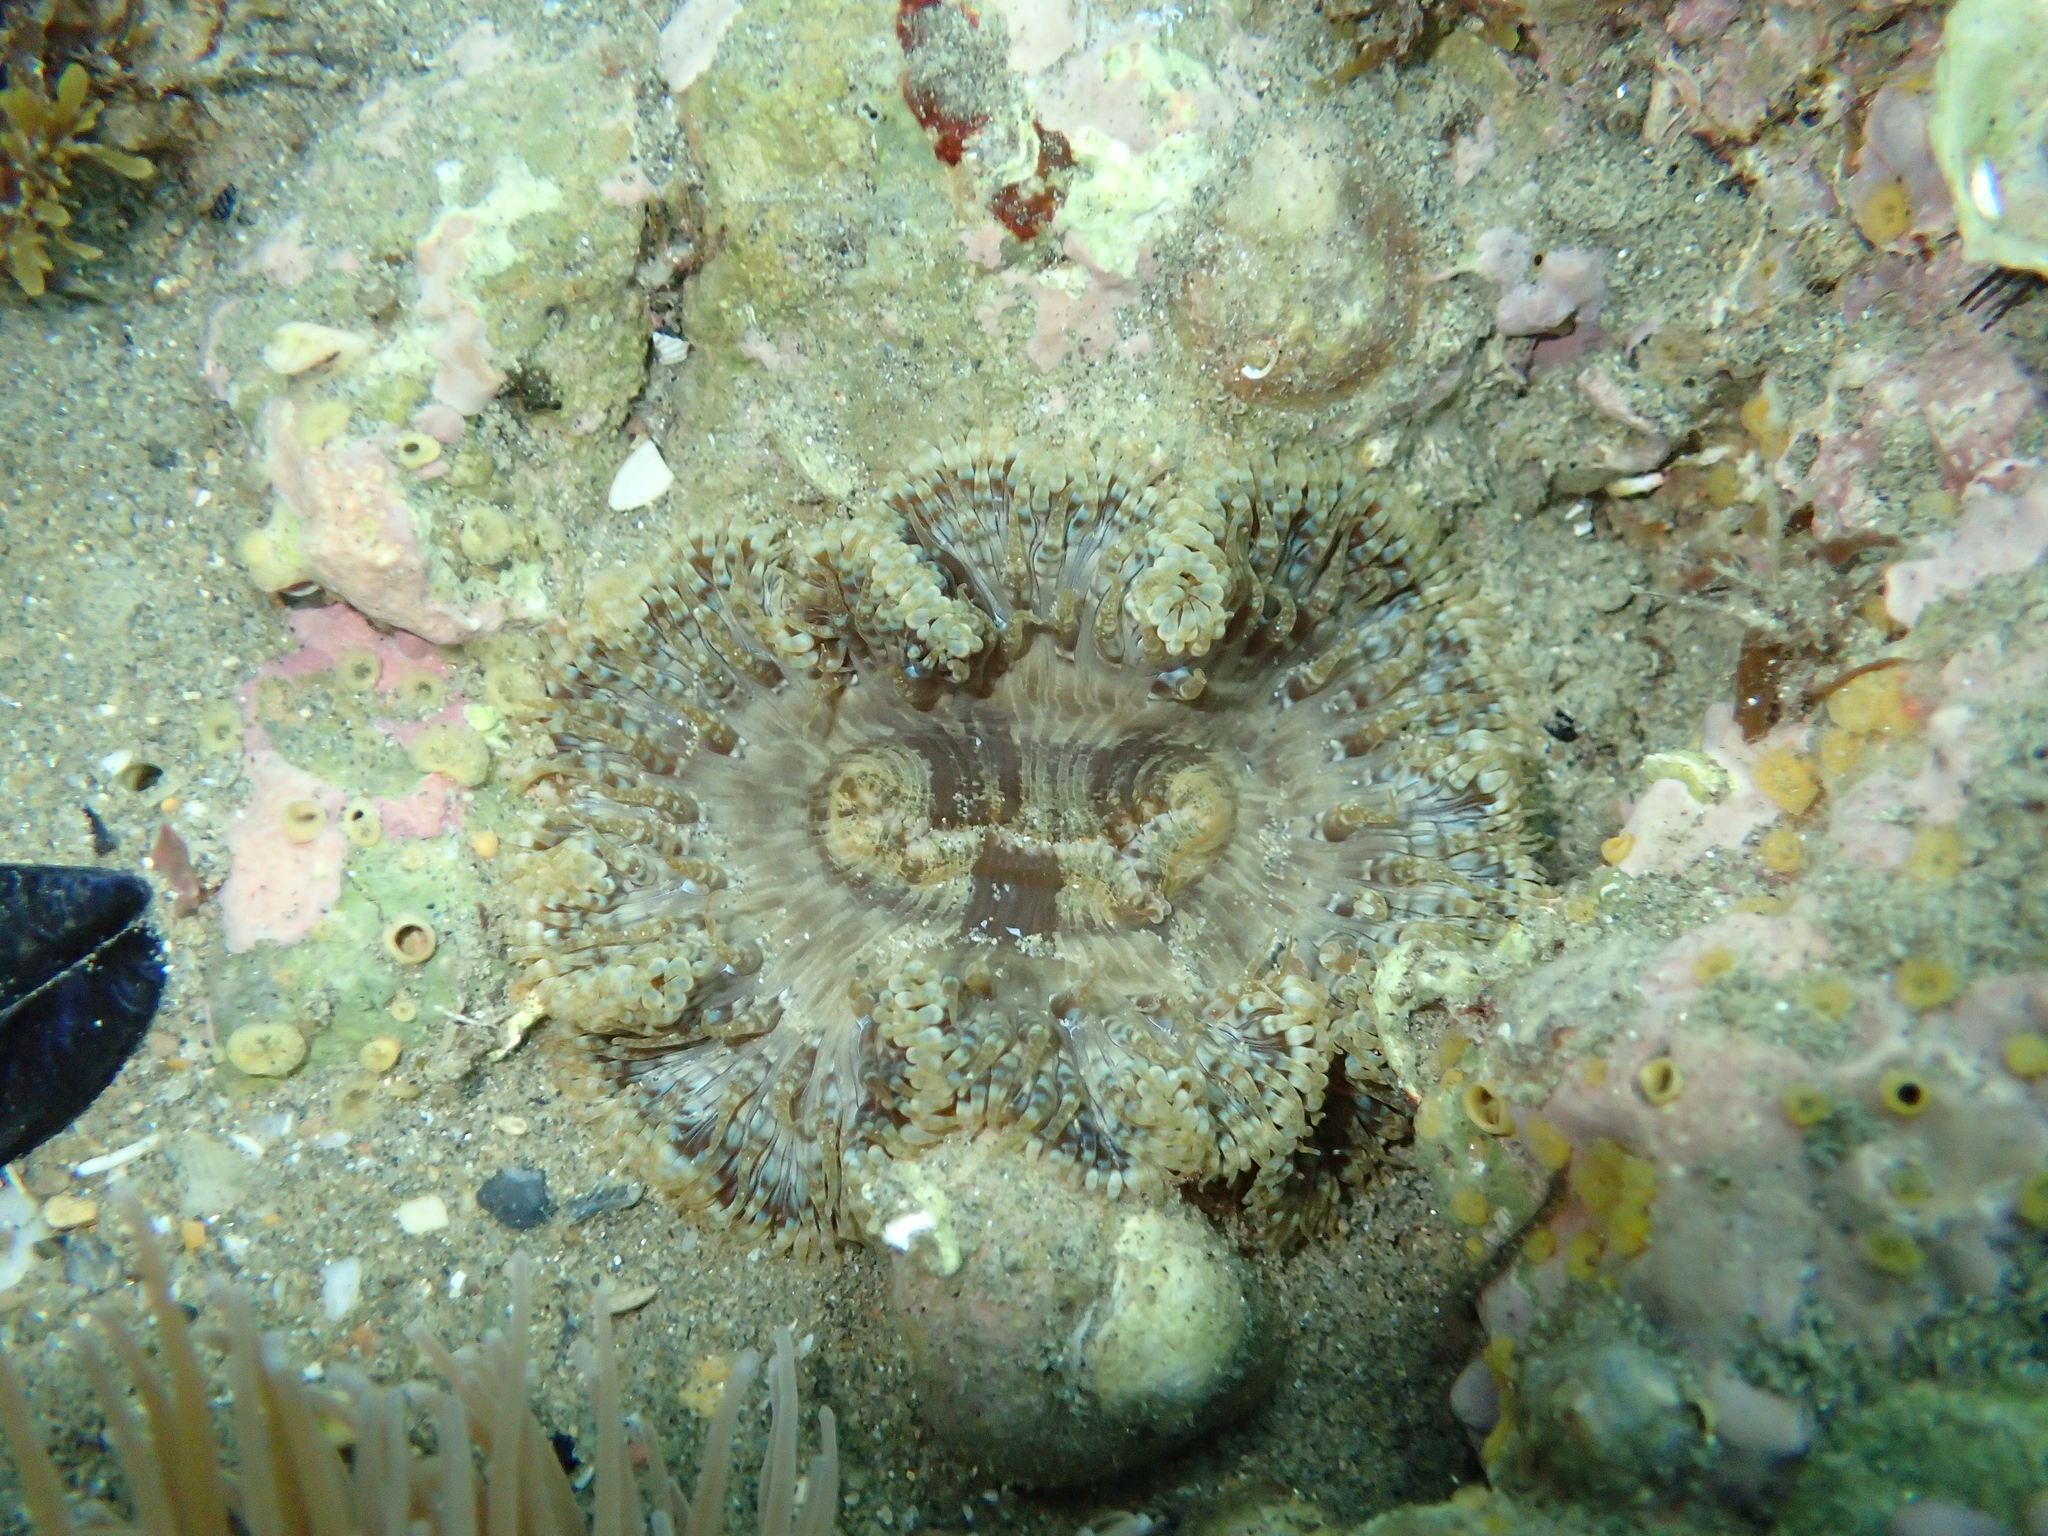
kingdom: Animalia
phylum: Cnidaria
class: Anthozoa
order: Actiniaria
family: Sagartiidae
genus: Cereus
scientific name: Cereus pedunculatus
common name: Daisy anemone
